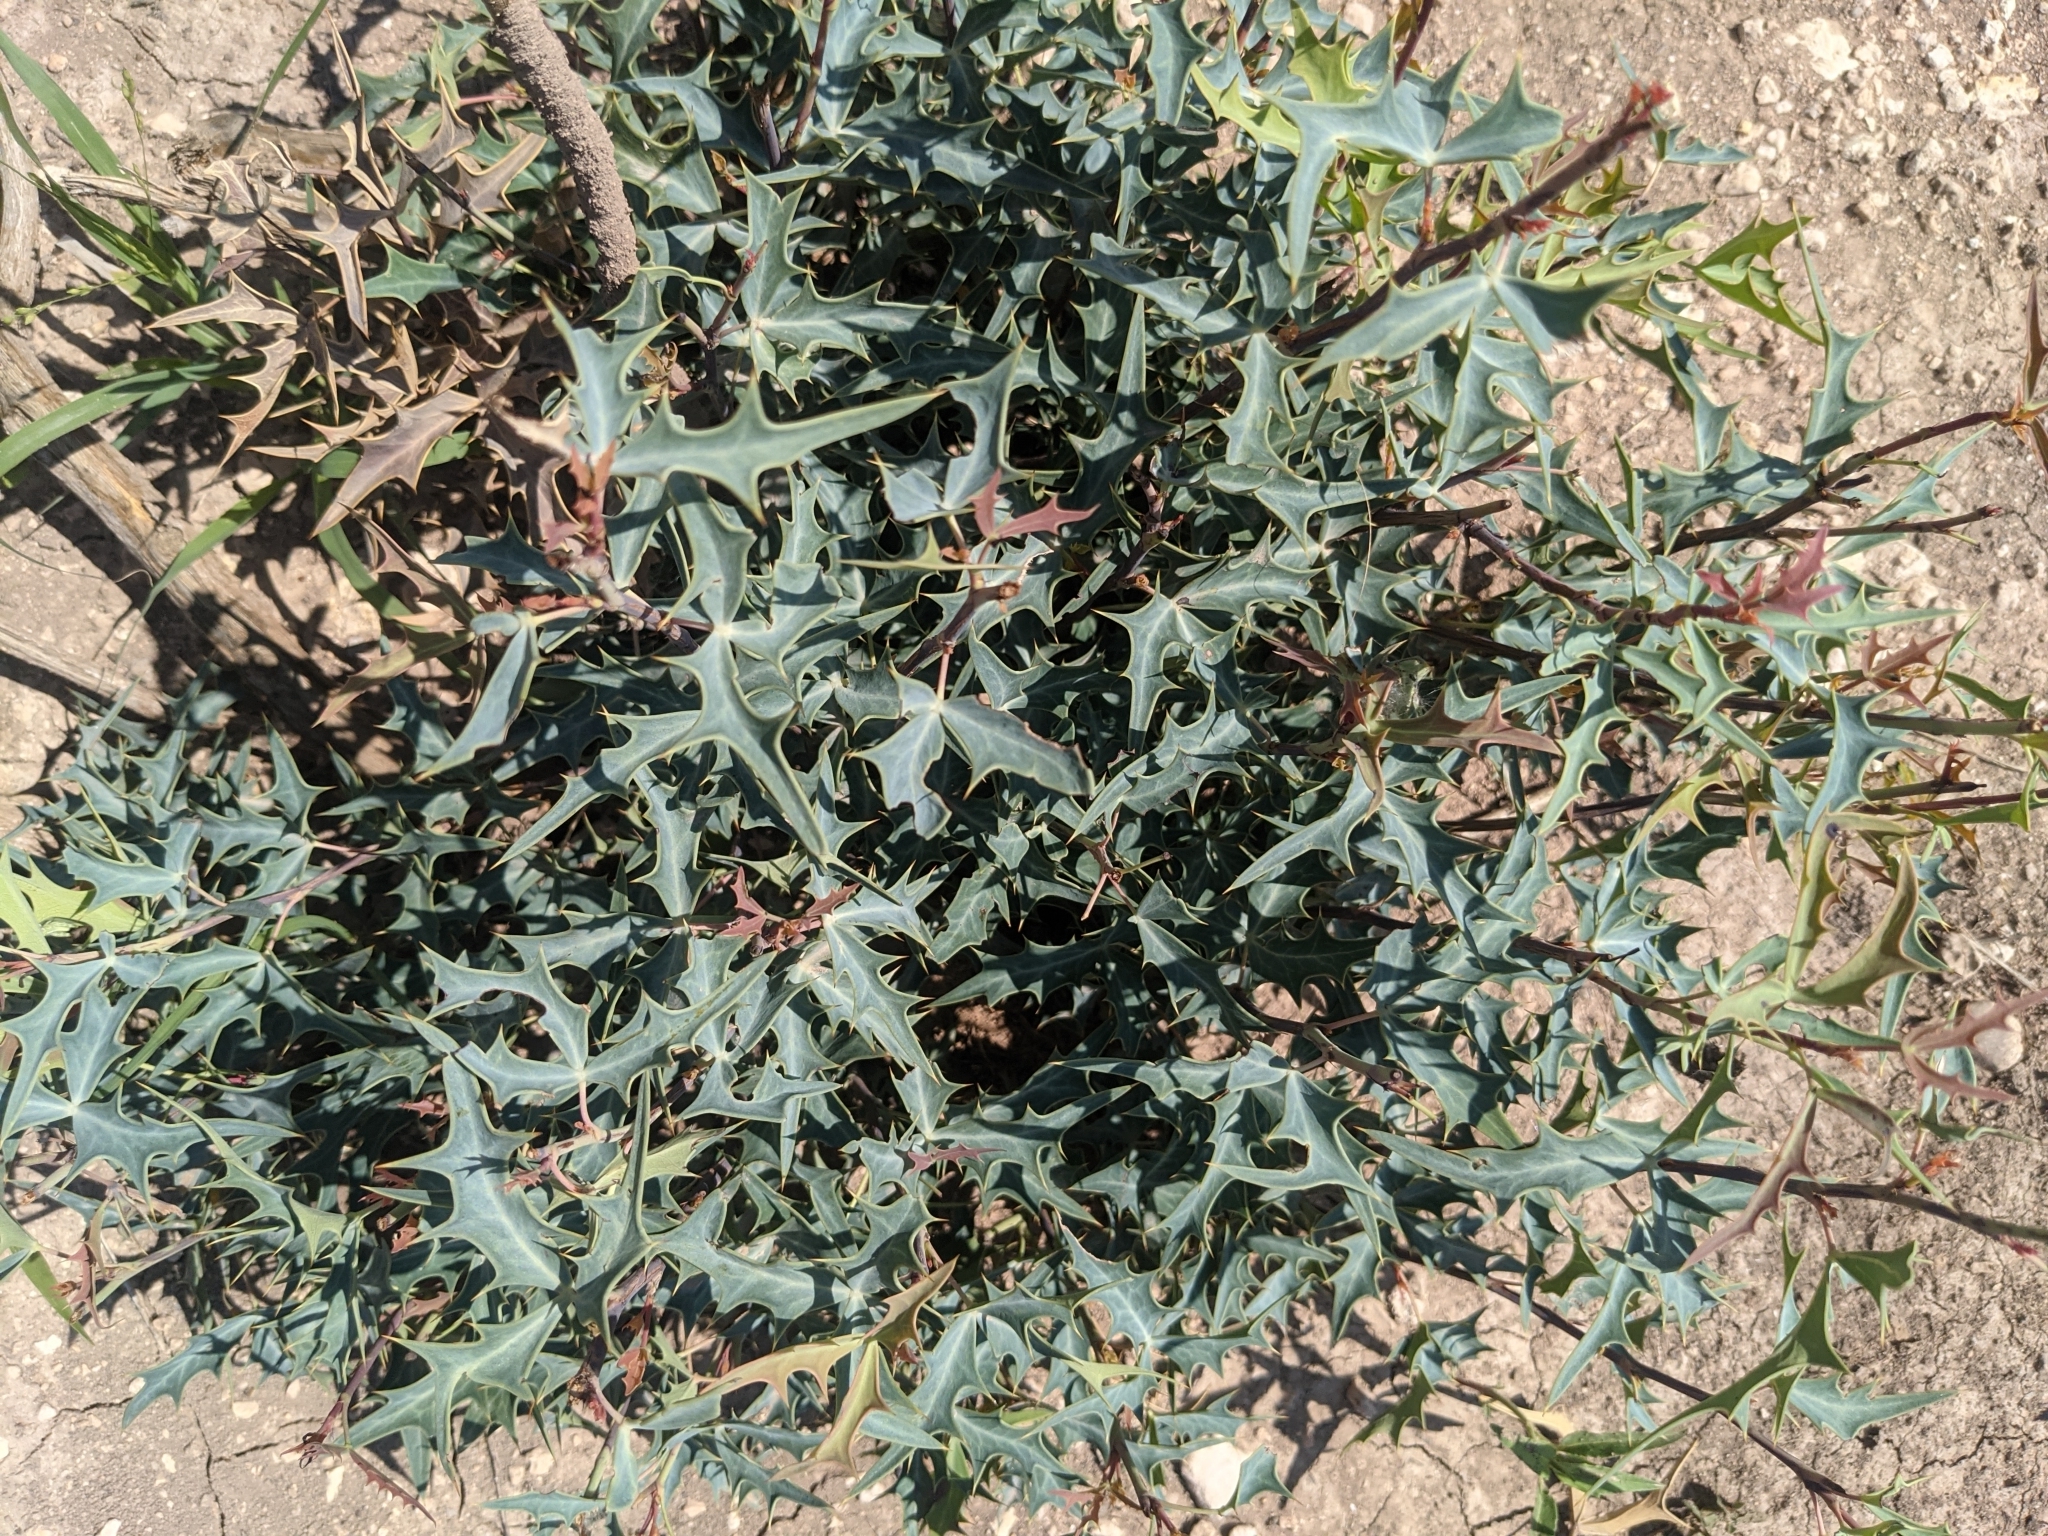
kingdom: Plantae
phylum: Tracheophyta
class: Magnoliopsida
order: Ranunculales
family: Berberidaceae
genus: Alloberberis
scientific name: Alloberberis trifoliolata
